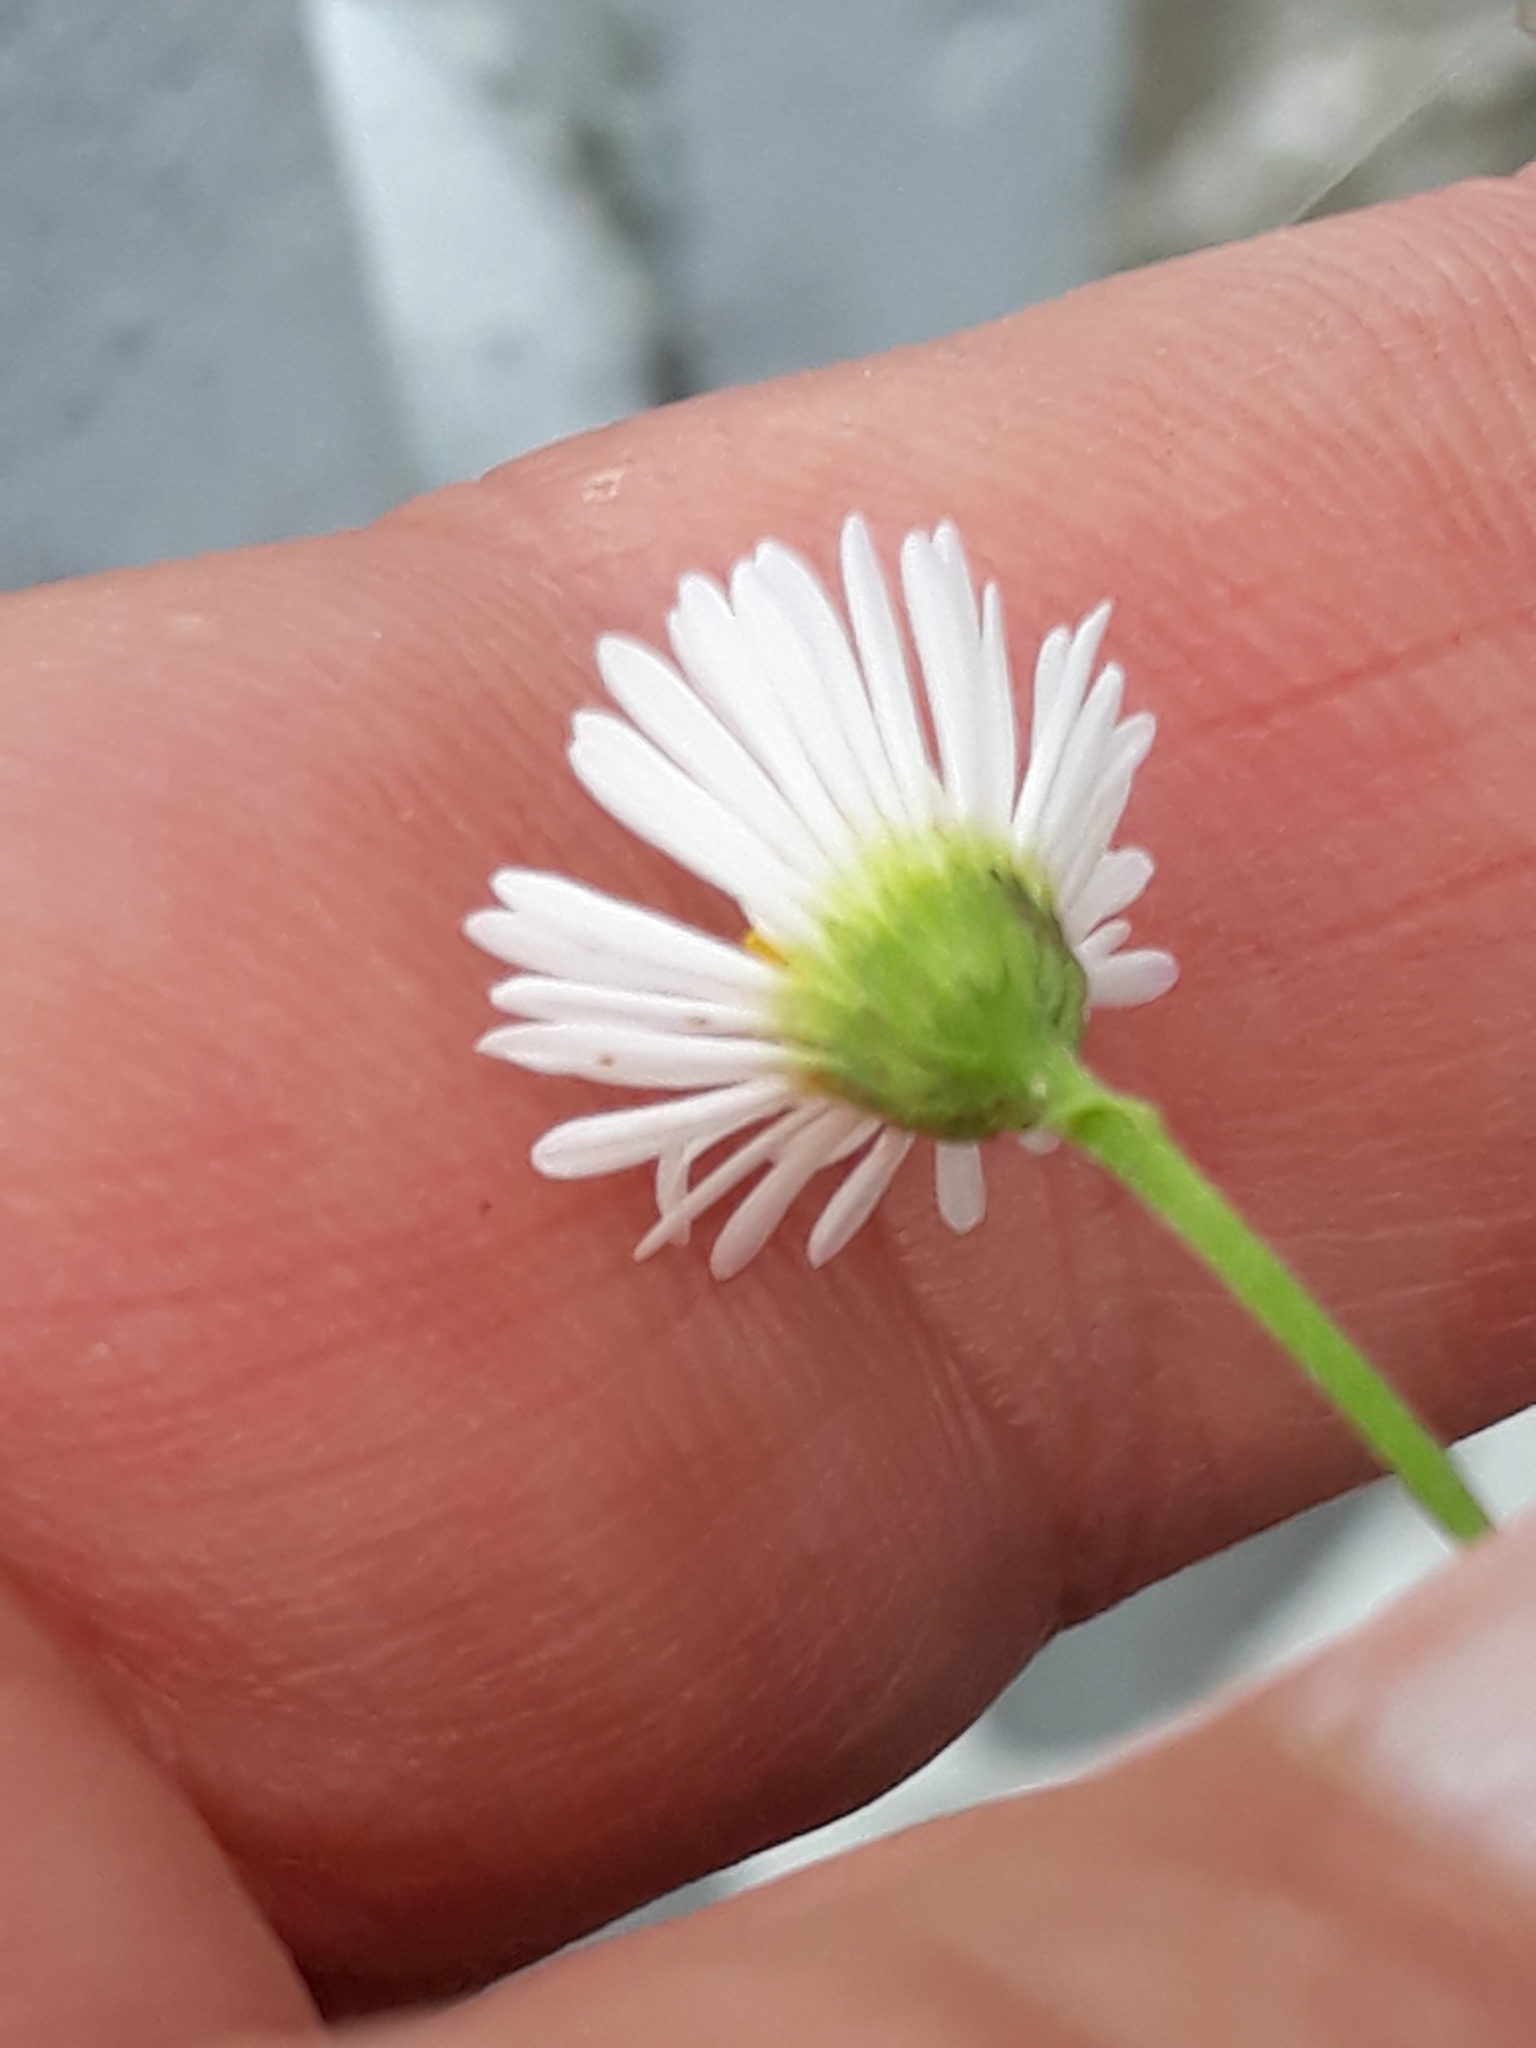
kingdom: Plantae
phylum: Tracheophyta
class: Magnoliopsida
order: Asterales
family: Asteraceae
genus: Erigeron
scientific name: Erigeron karvinskianus
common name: Mexican fleabane
